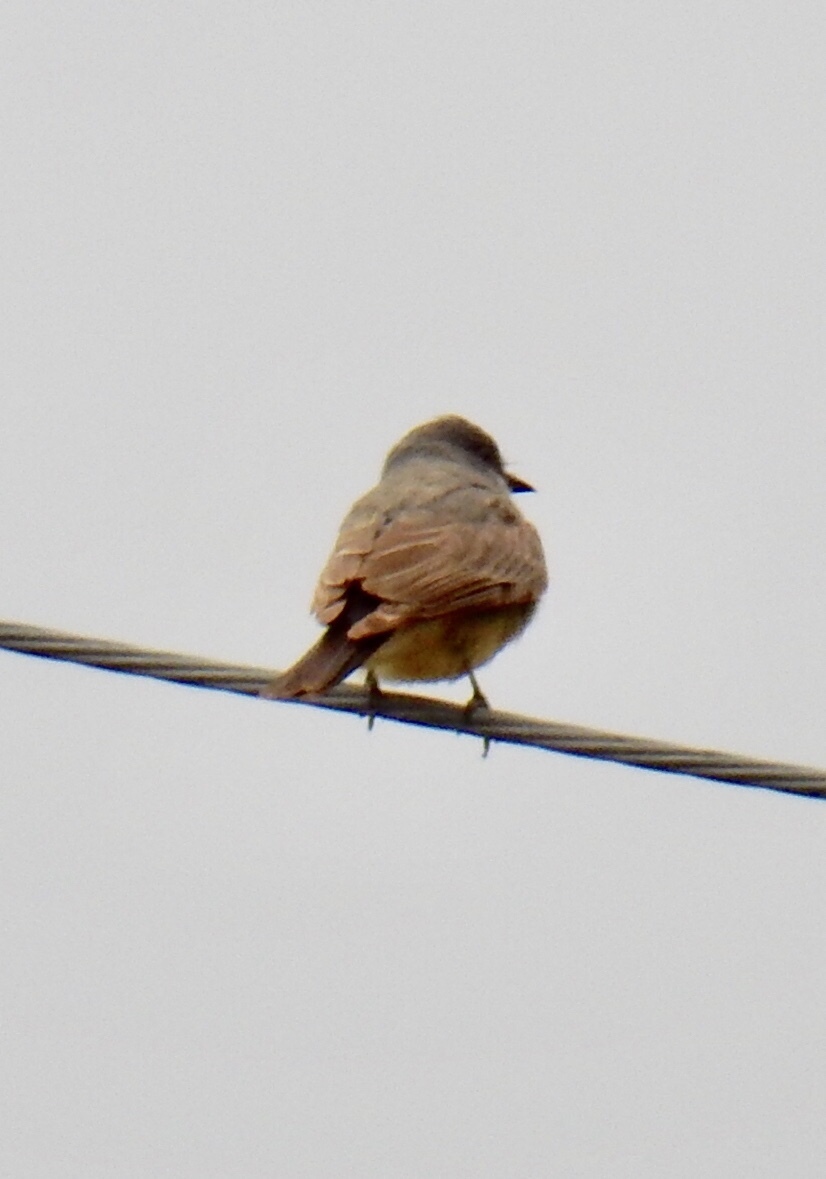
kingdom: Animalia
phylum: Chordata
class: Aves
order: Passeriformes
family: Tyrannidae
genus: Tyrannus
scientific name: Tyrannus vociferans
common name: Cassin's kingbird
